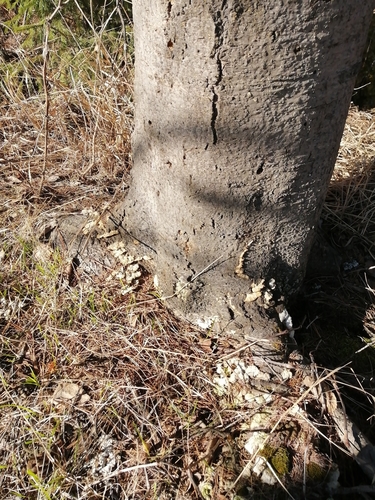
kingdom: Fungi
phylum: Basidiomycota
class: Agaricomycetes
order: Hymenochaetales
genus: Trichaptum
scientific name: Trichaptum
